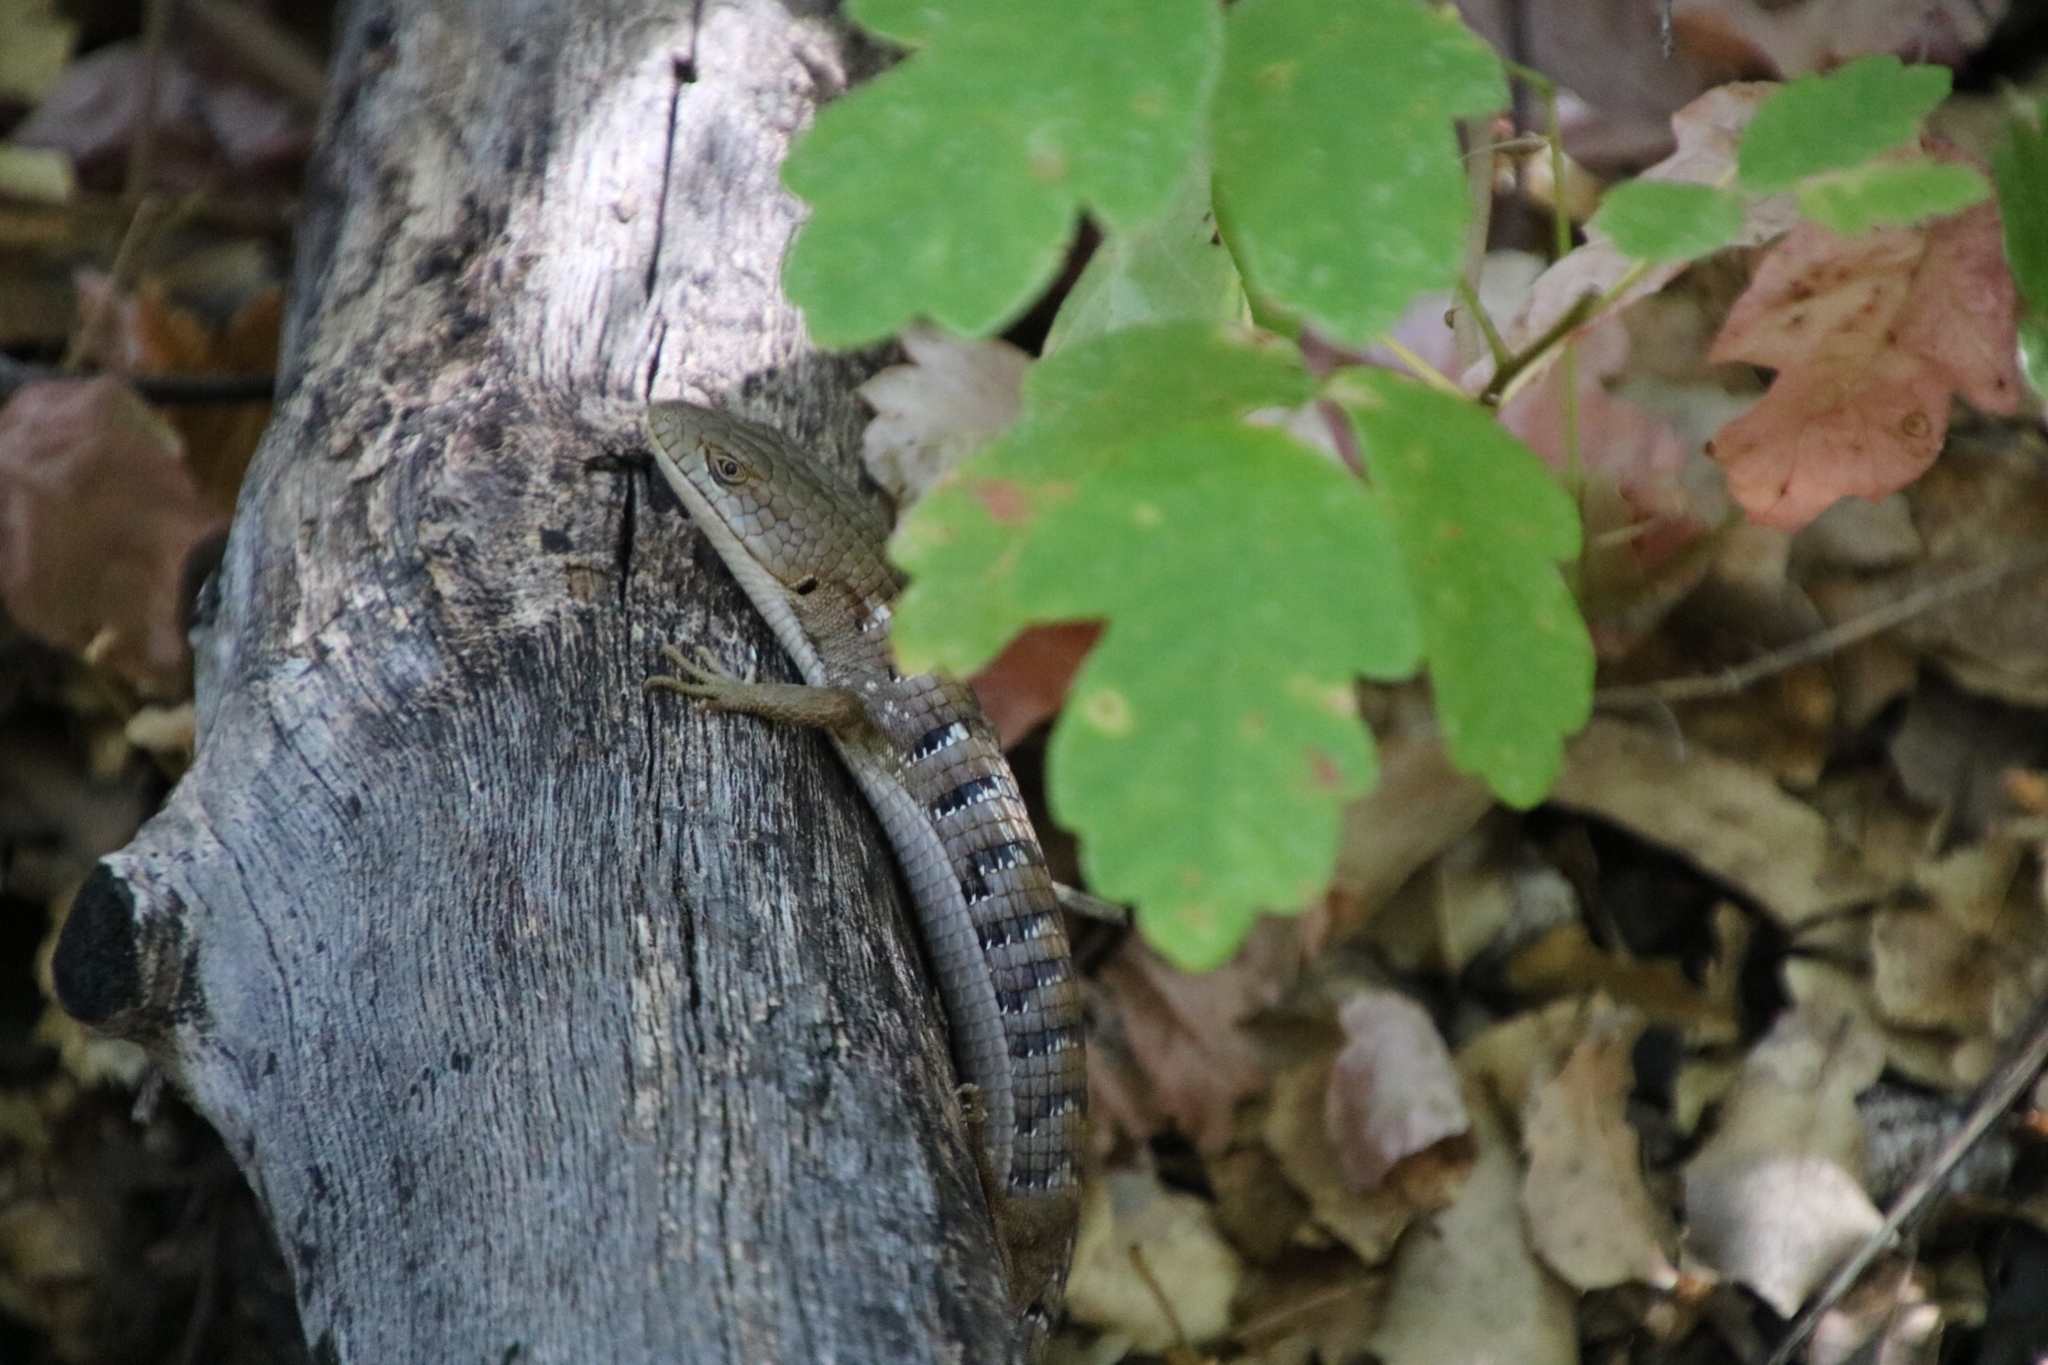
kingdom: Animalia
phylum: Chordata
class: Squamata
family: Anguidae
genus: Elgaria
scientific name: Elgaria multicarinata
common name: Southern alligator lizard
